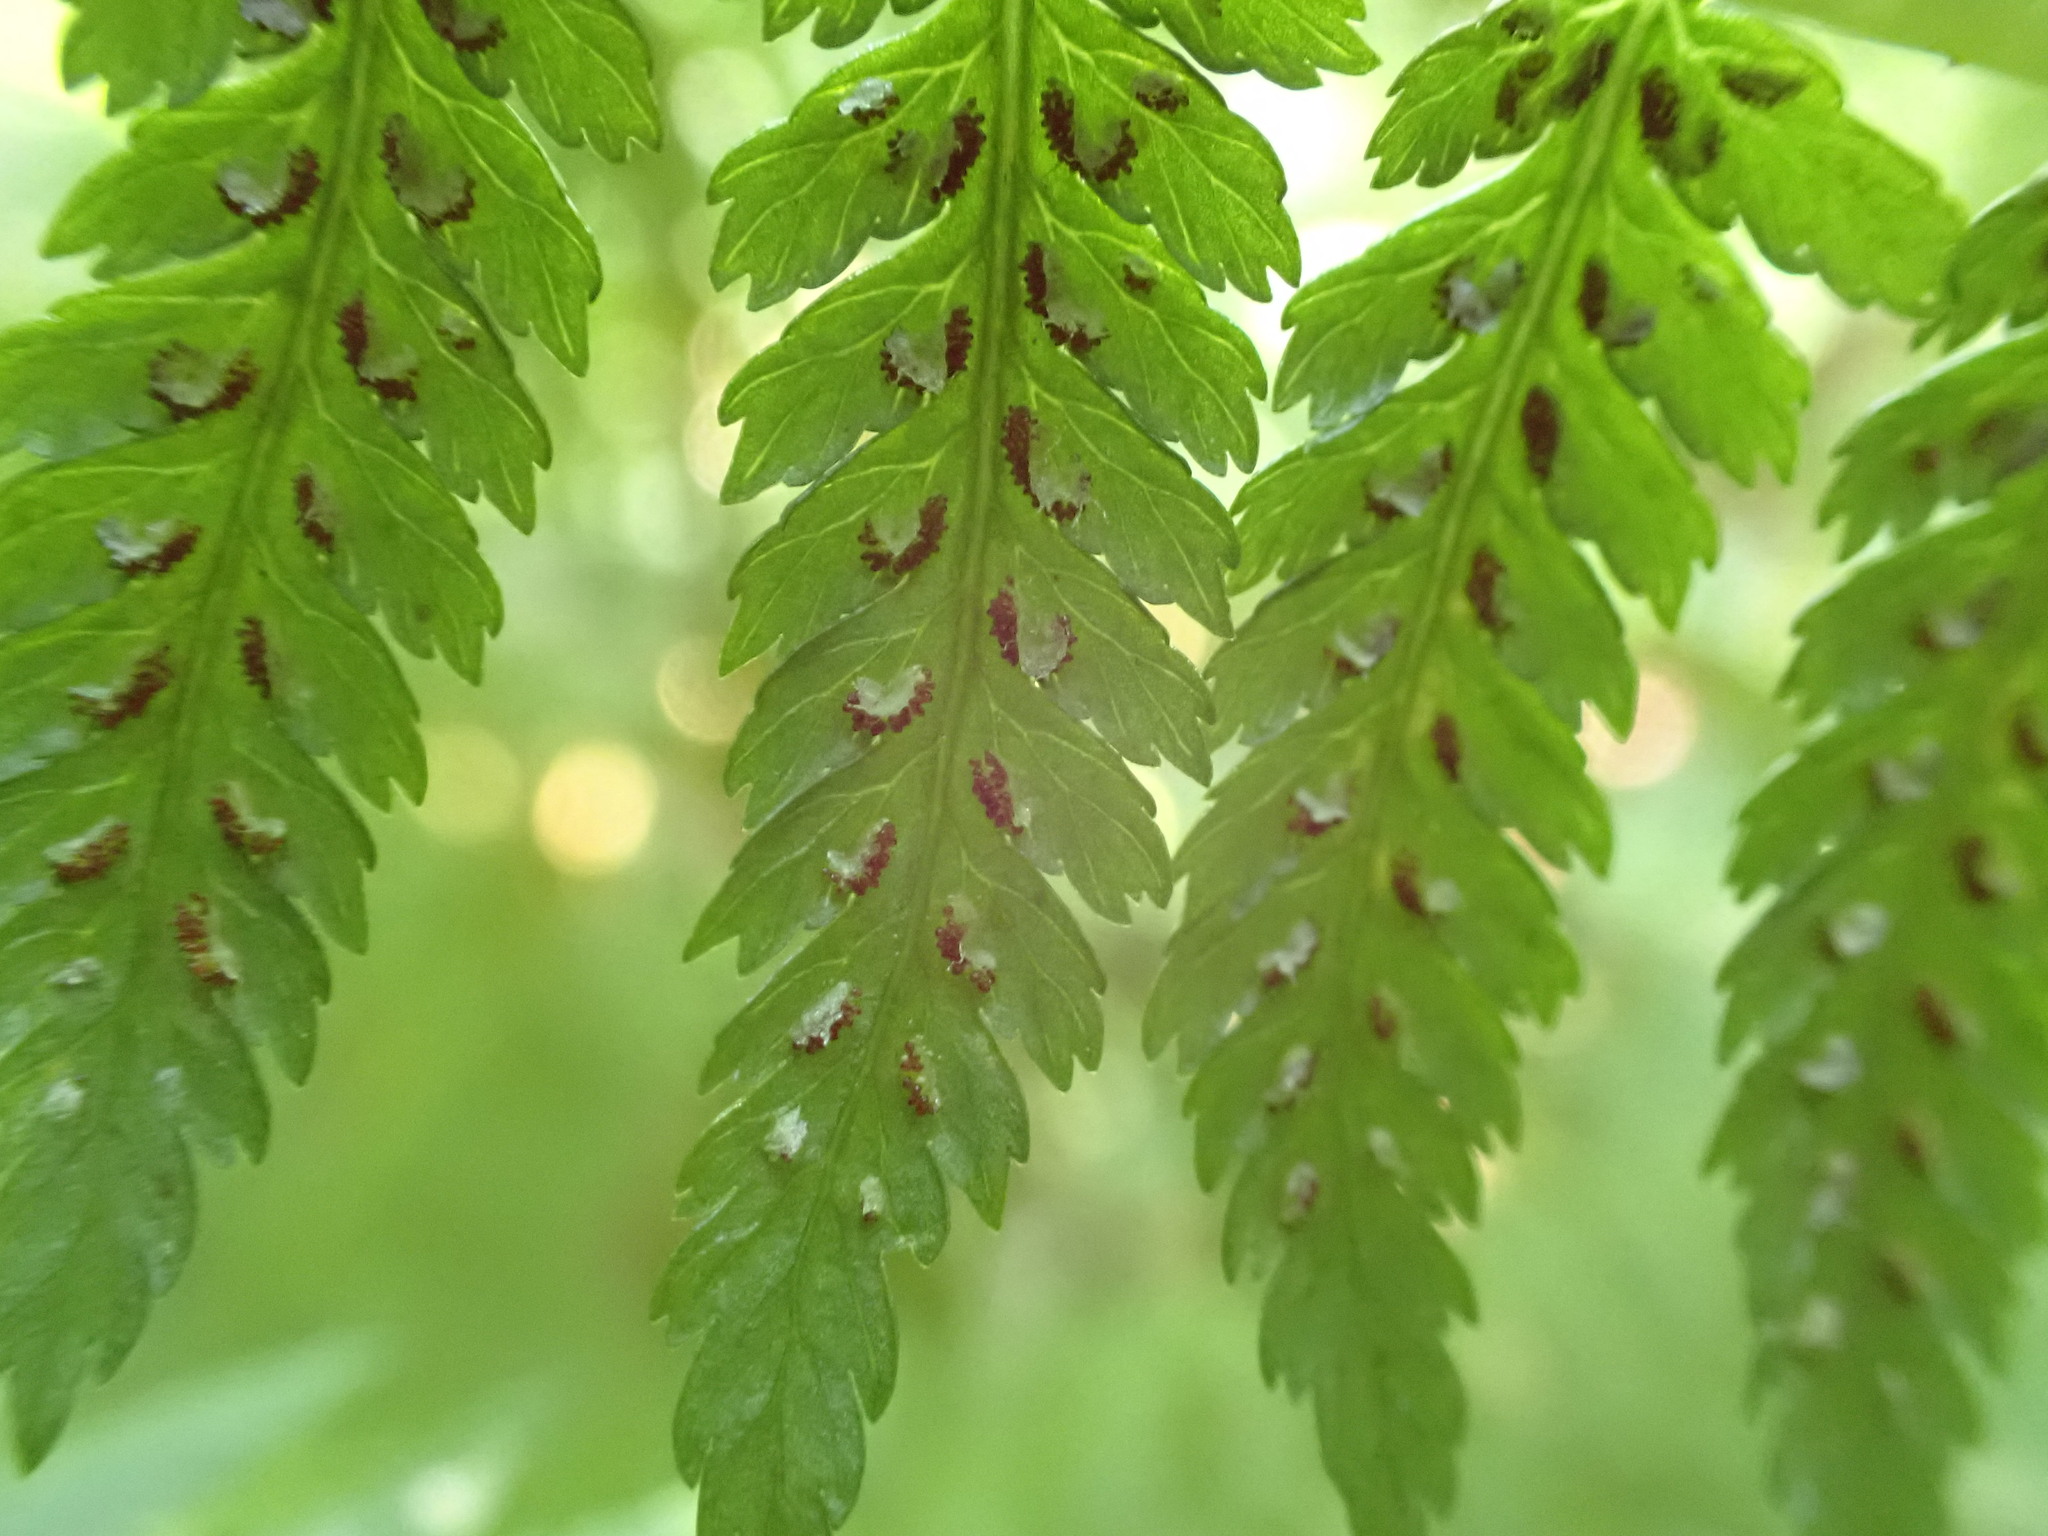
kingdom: Plantae
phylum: Tracheophyta
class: Polypodiopsida
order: Polypodiales
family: Athyriaceae
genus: Athyrium
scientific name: Athyrium filix-femina
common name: Lady fern
